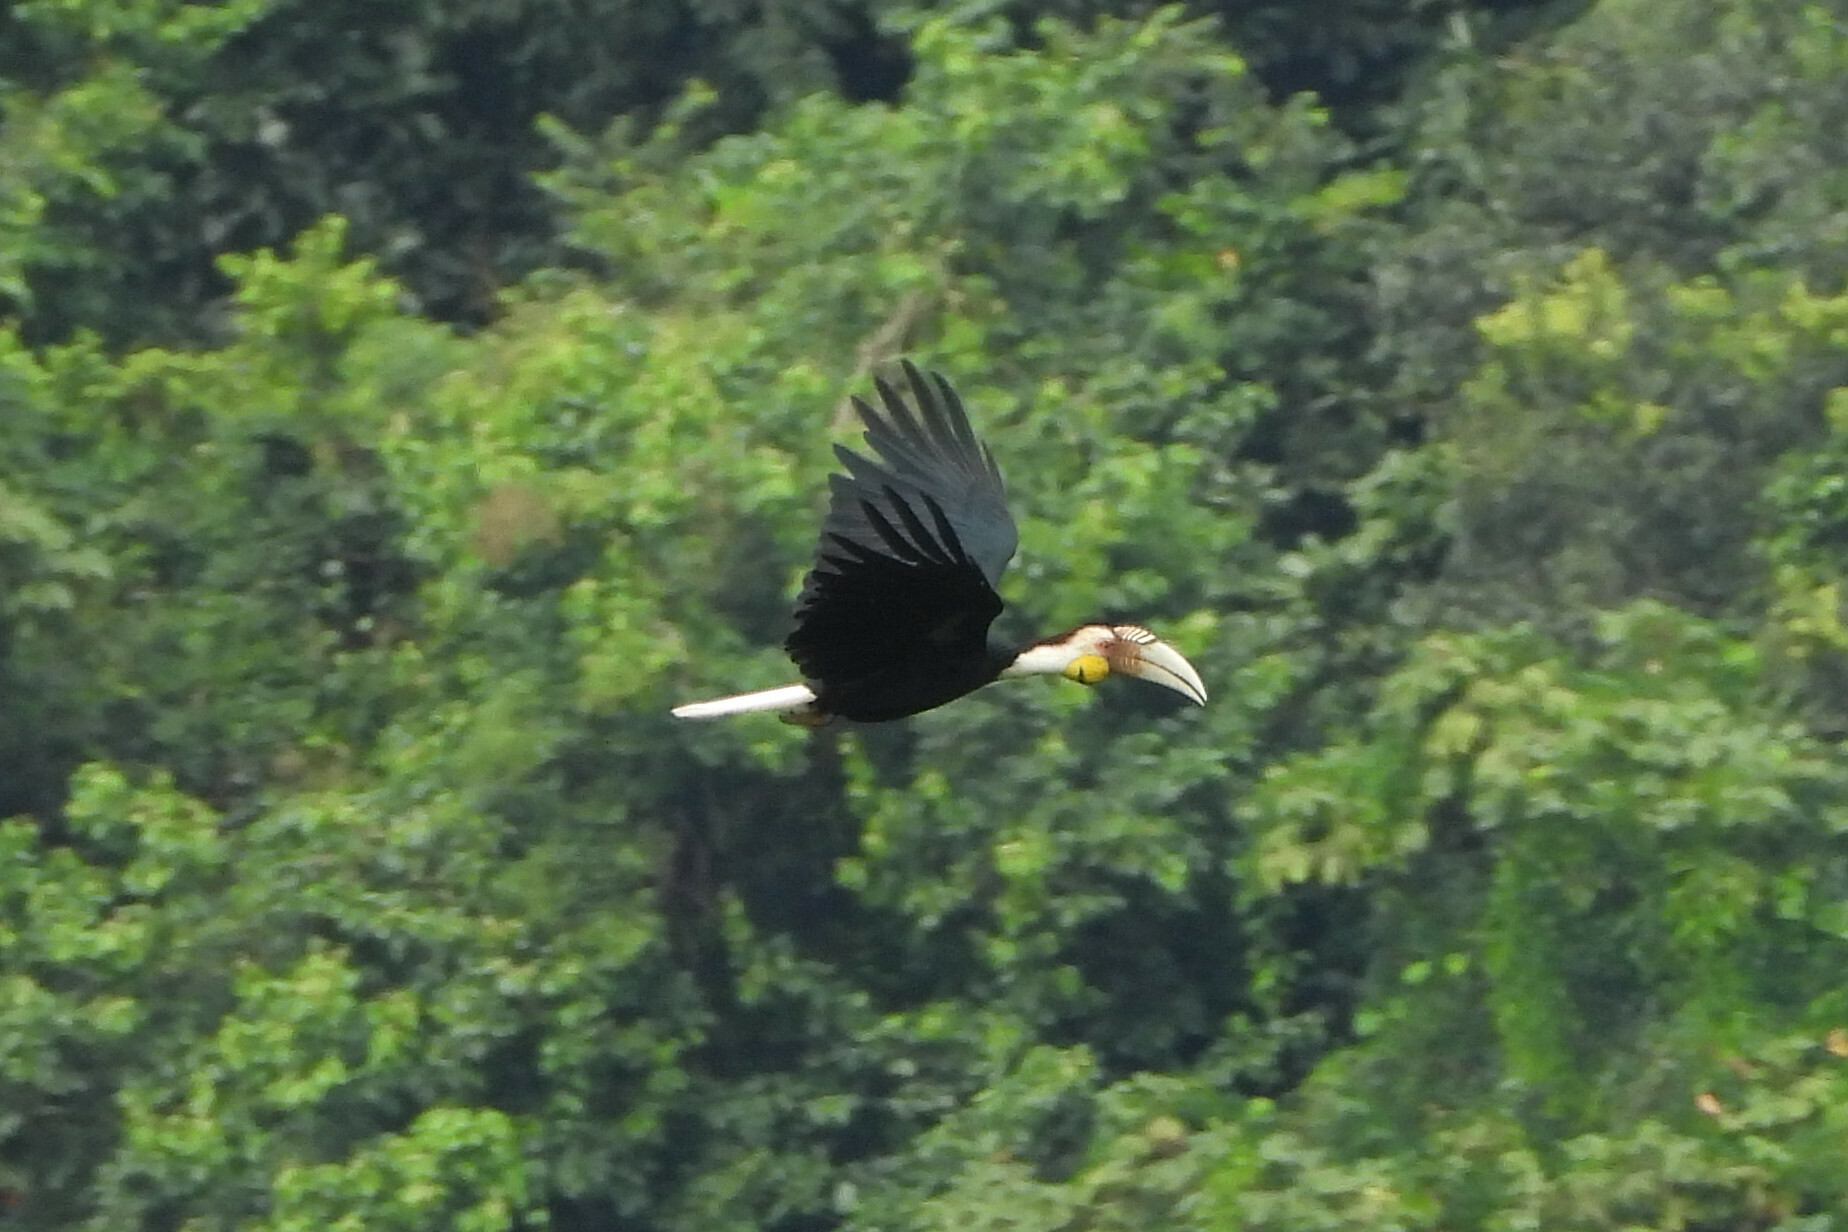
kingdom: Animalia
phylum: Chordata
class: Aves
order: Bucerotiformes
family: Bucerotidae
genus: Rhyticeros
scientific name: Rhyticeros undulatus
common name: Wreathed hornbill
